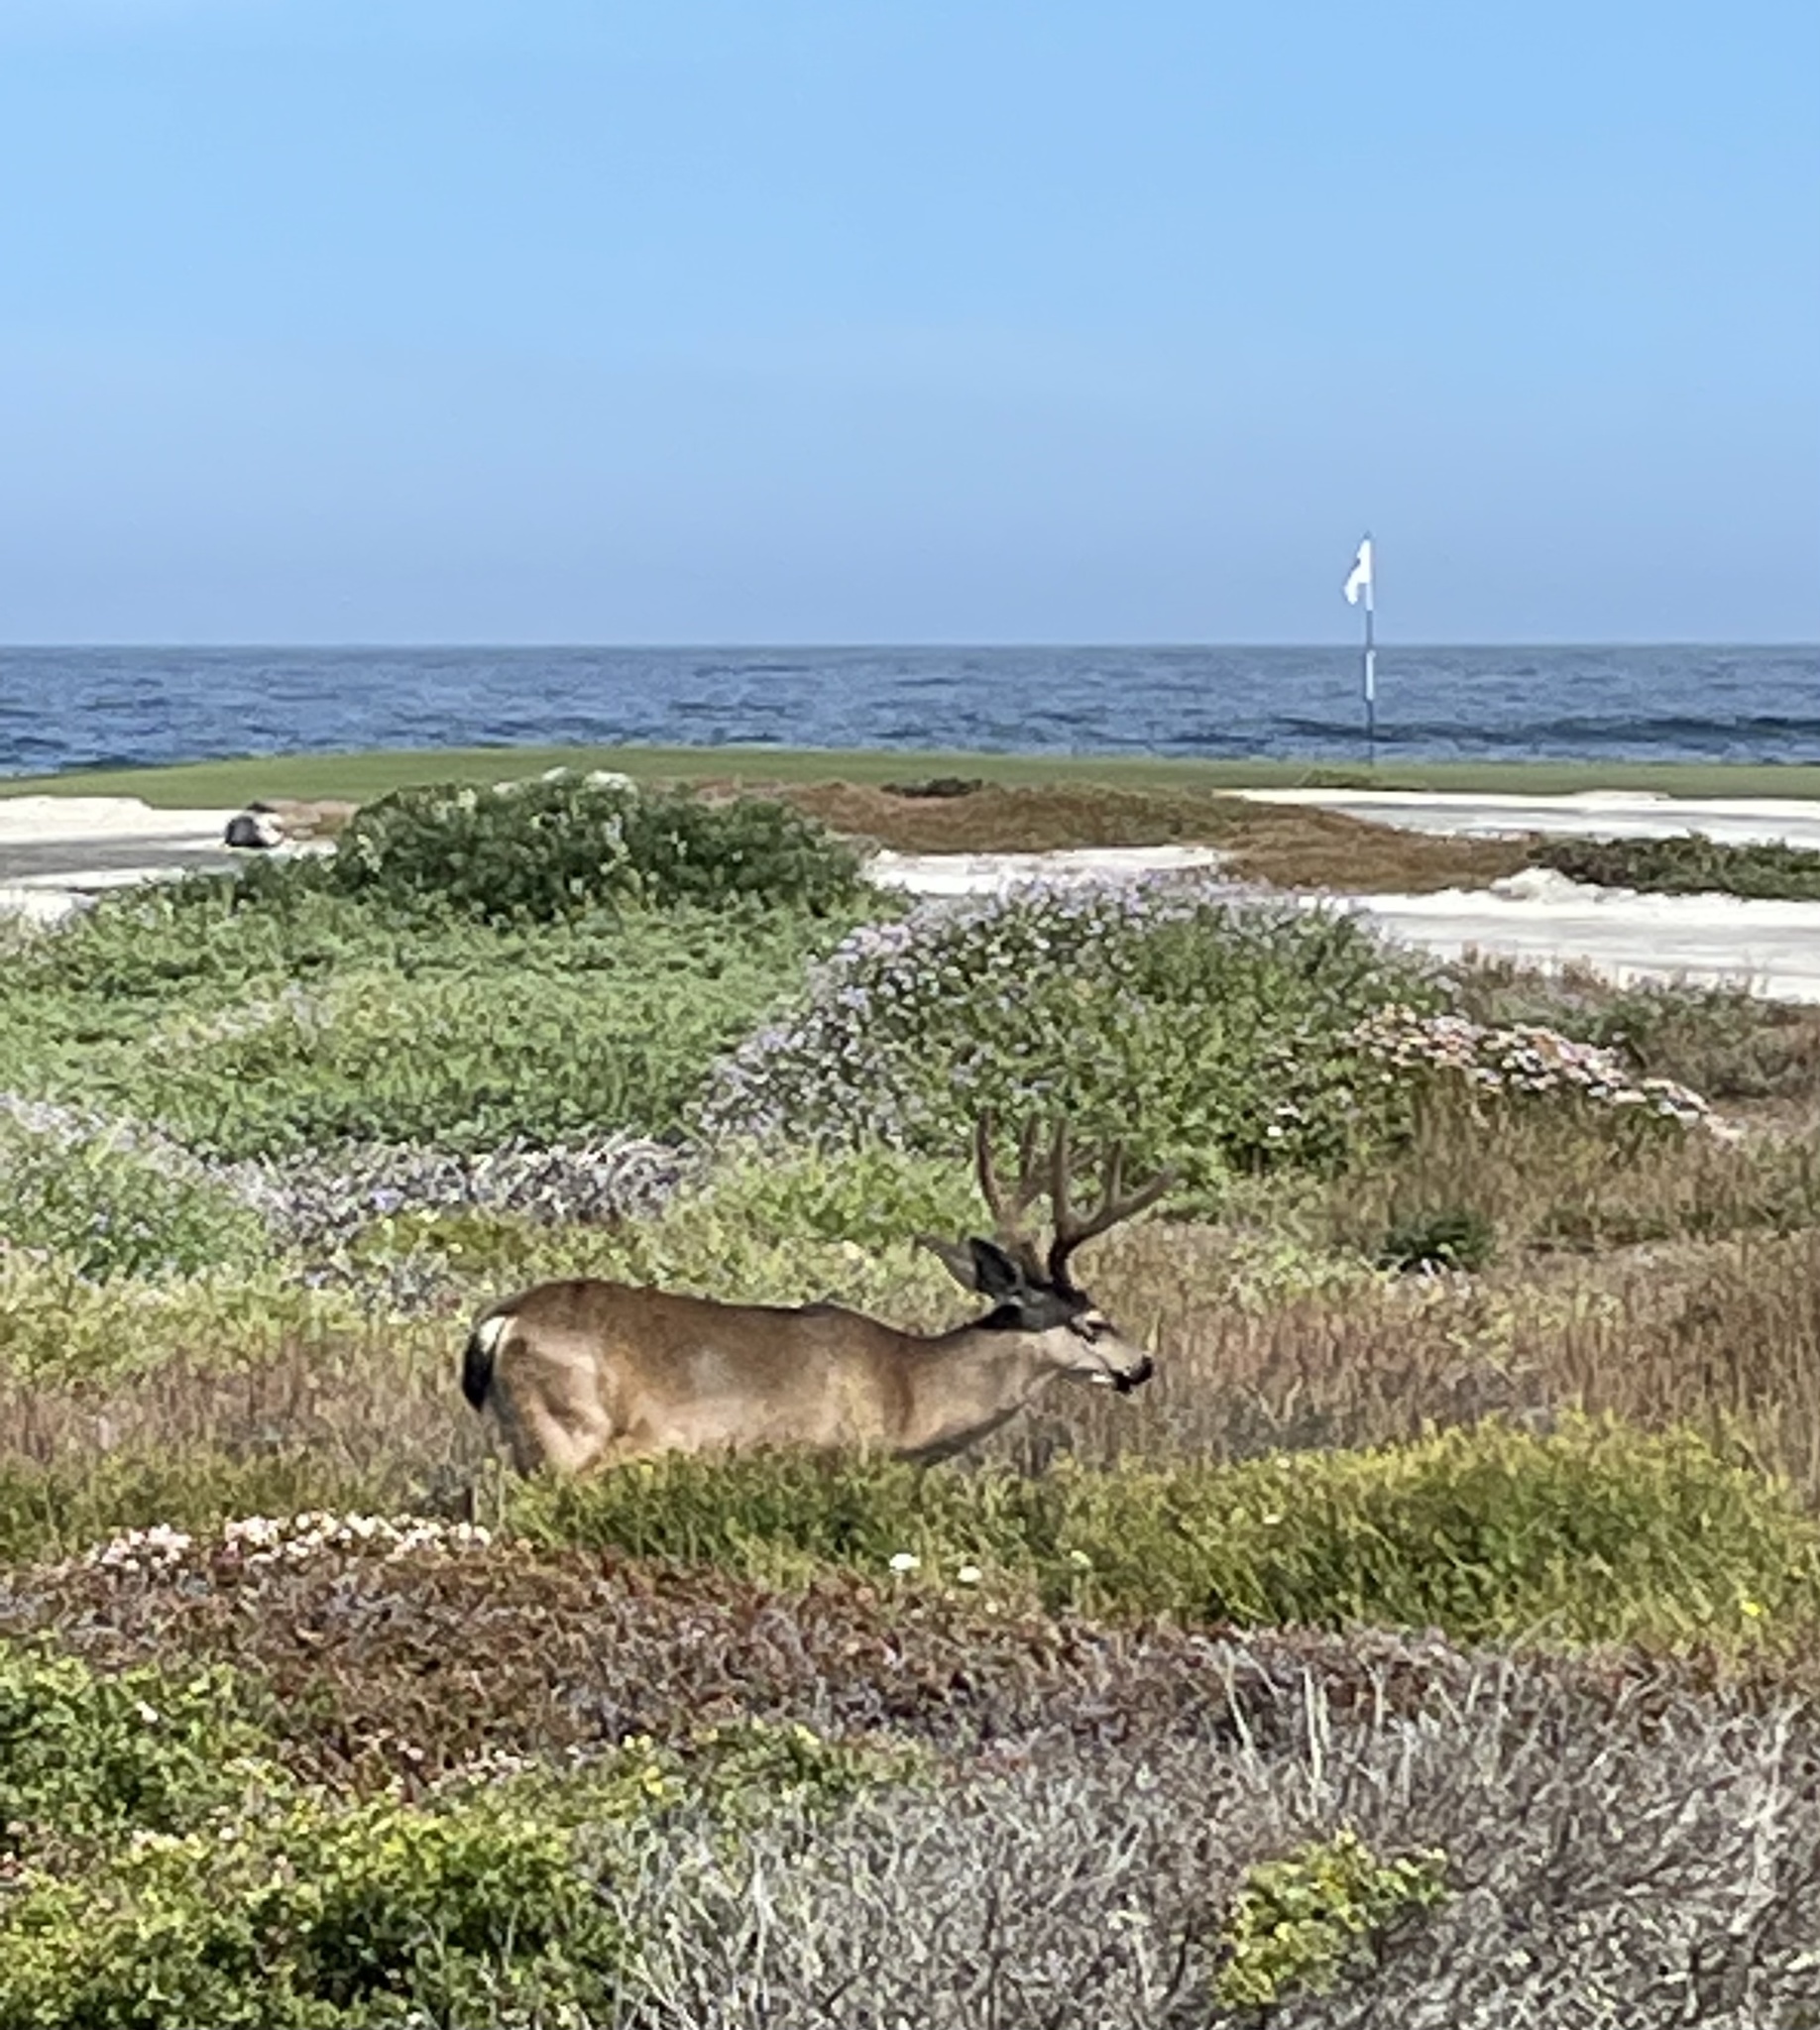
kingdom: Animalia
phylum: Chordata
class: Mammalia
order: Artiodactyla
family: Cervidae
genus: Odocoileus
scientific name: Odocoileus hemionus
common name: Mule deer
